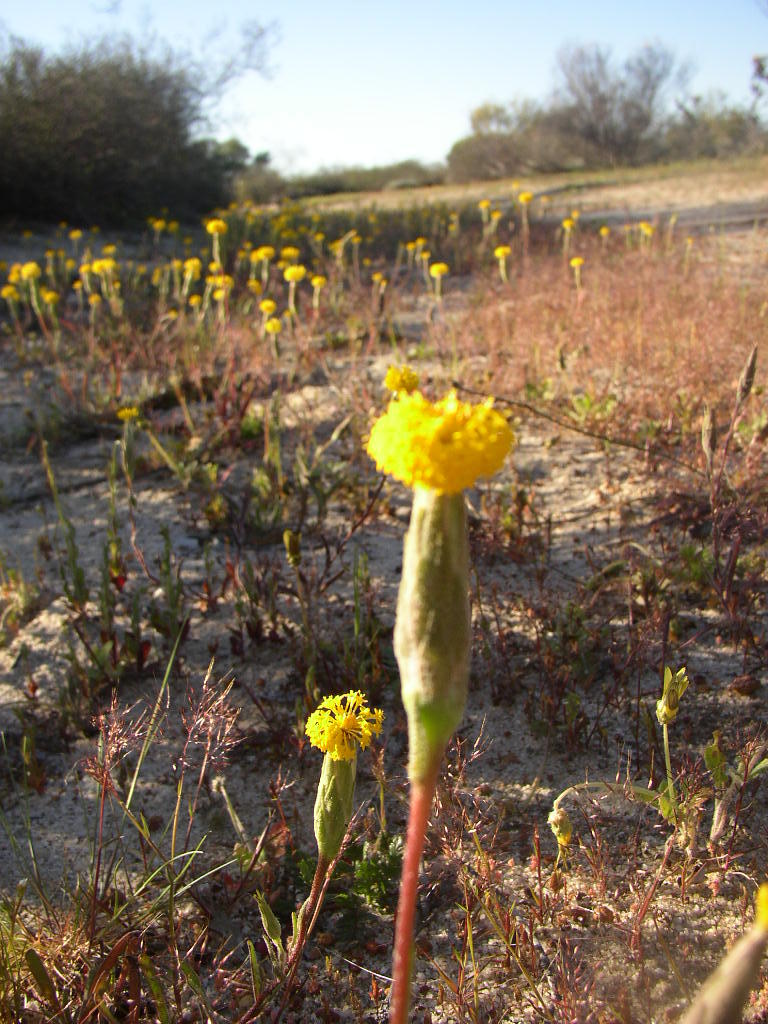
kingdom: Plantae
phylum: Tracheophyta
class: Magnoliopsida
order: Asterales
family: Asteraceae
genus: Podotheca
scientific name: Podotheca gnaphalioides
